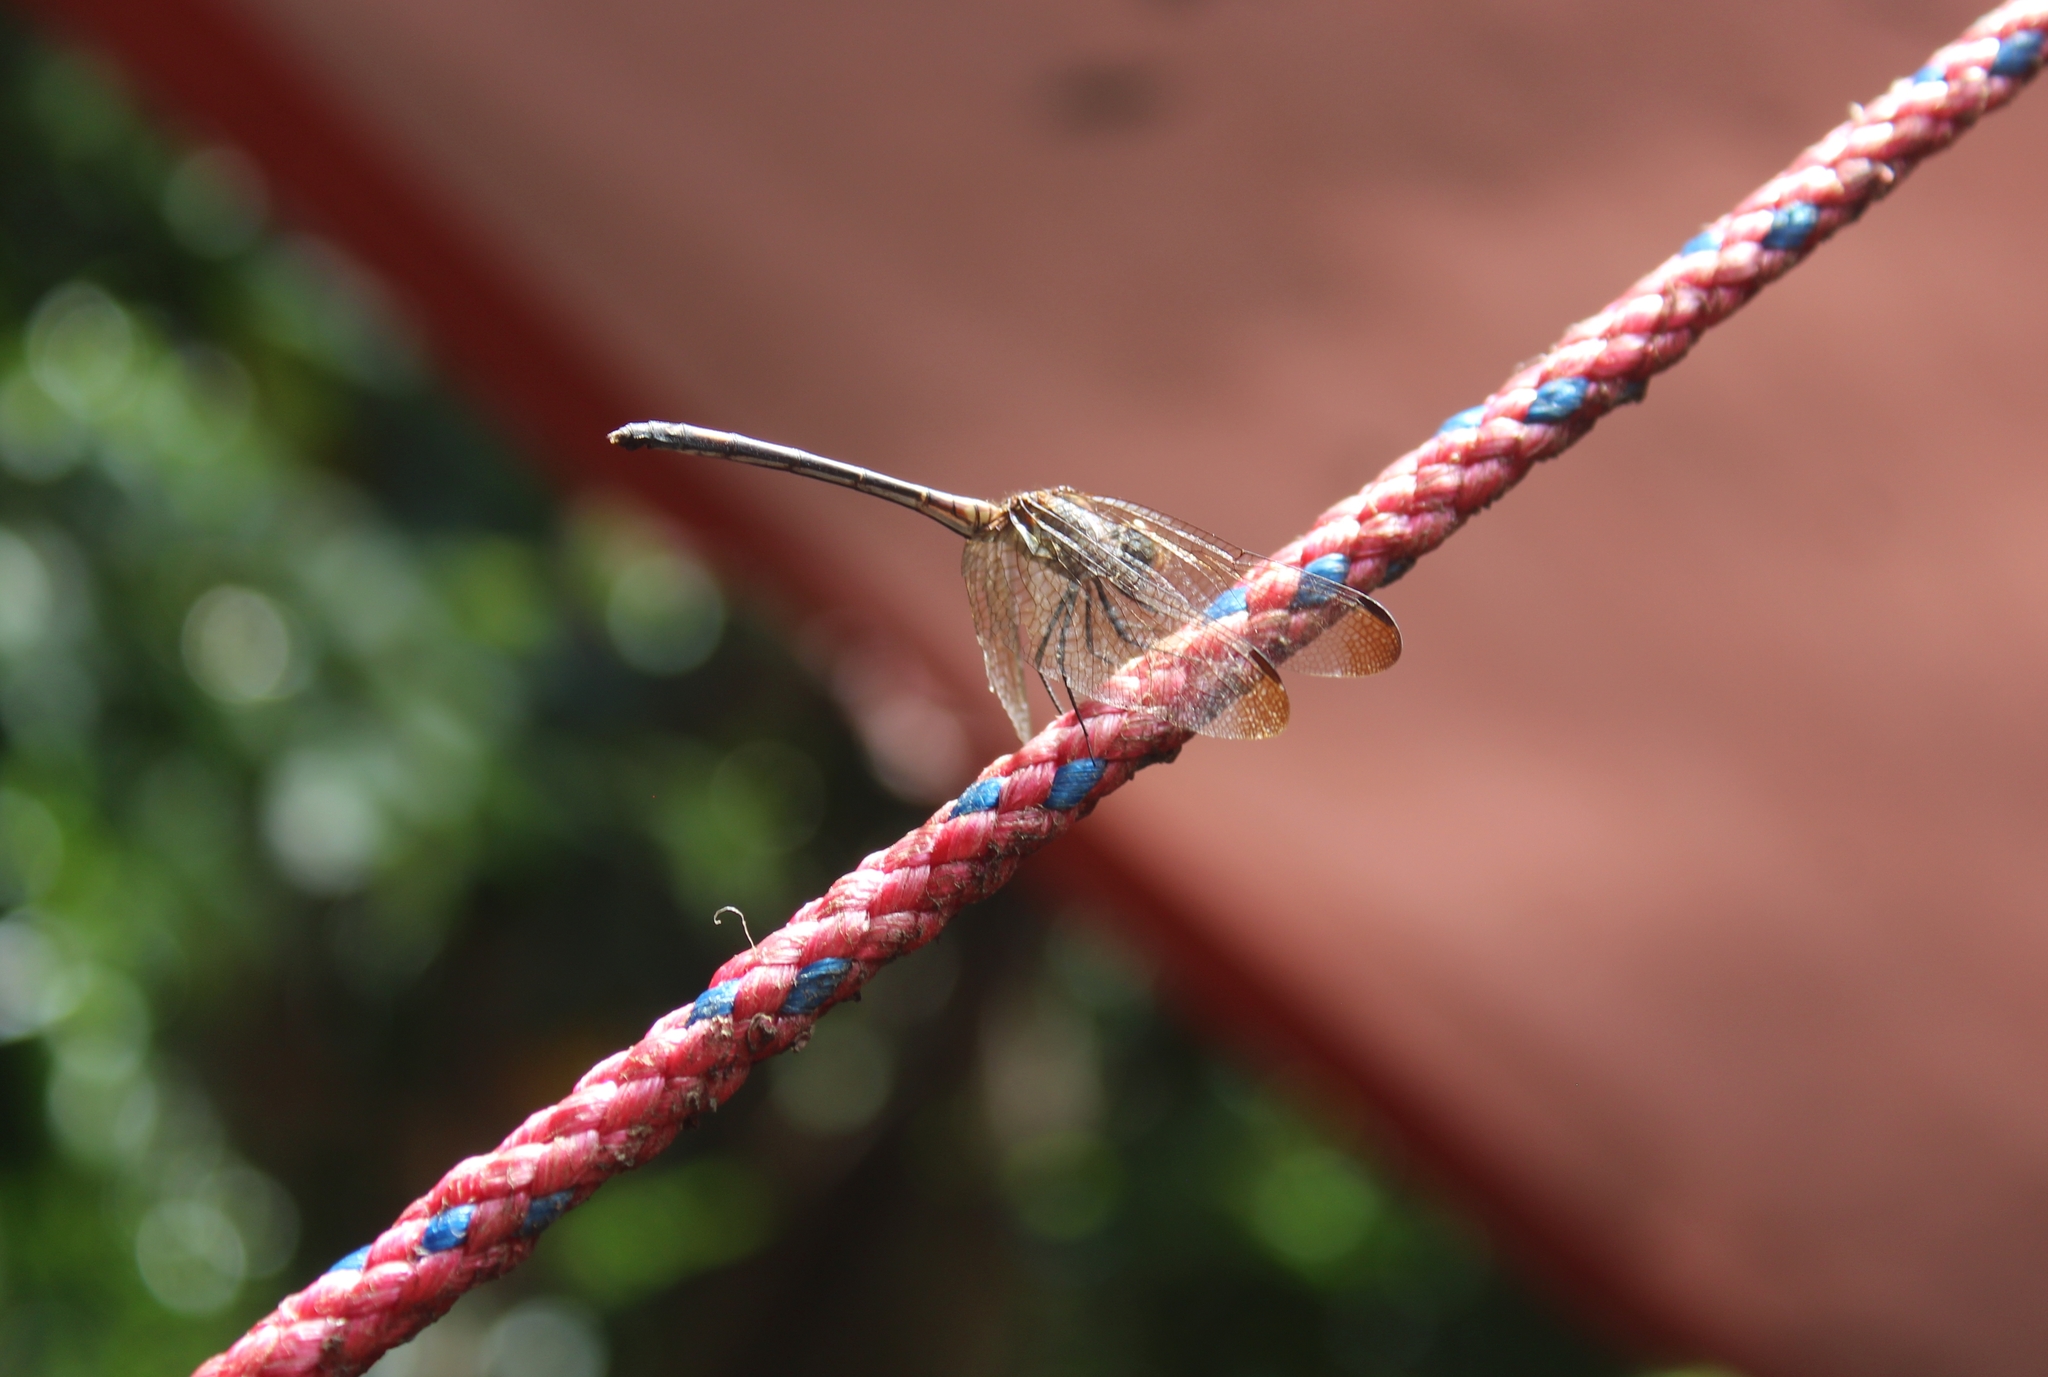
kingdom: Animalia
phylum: Arthropoda
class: Insecta
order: Odonata
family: Libellulidae
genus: Dythemis
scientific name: Dythemis sterilis
